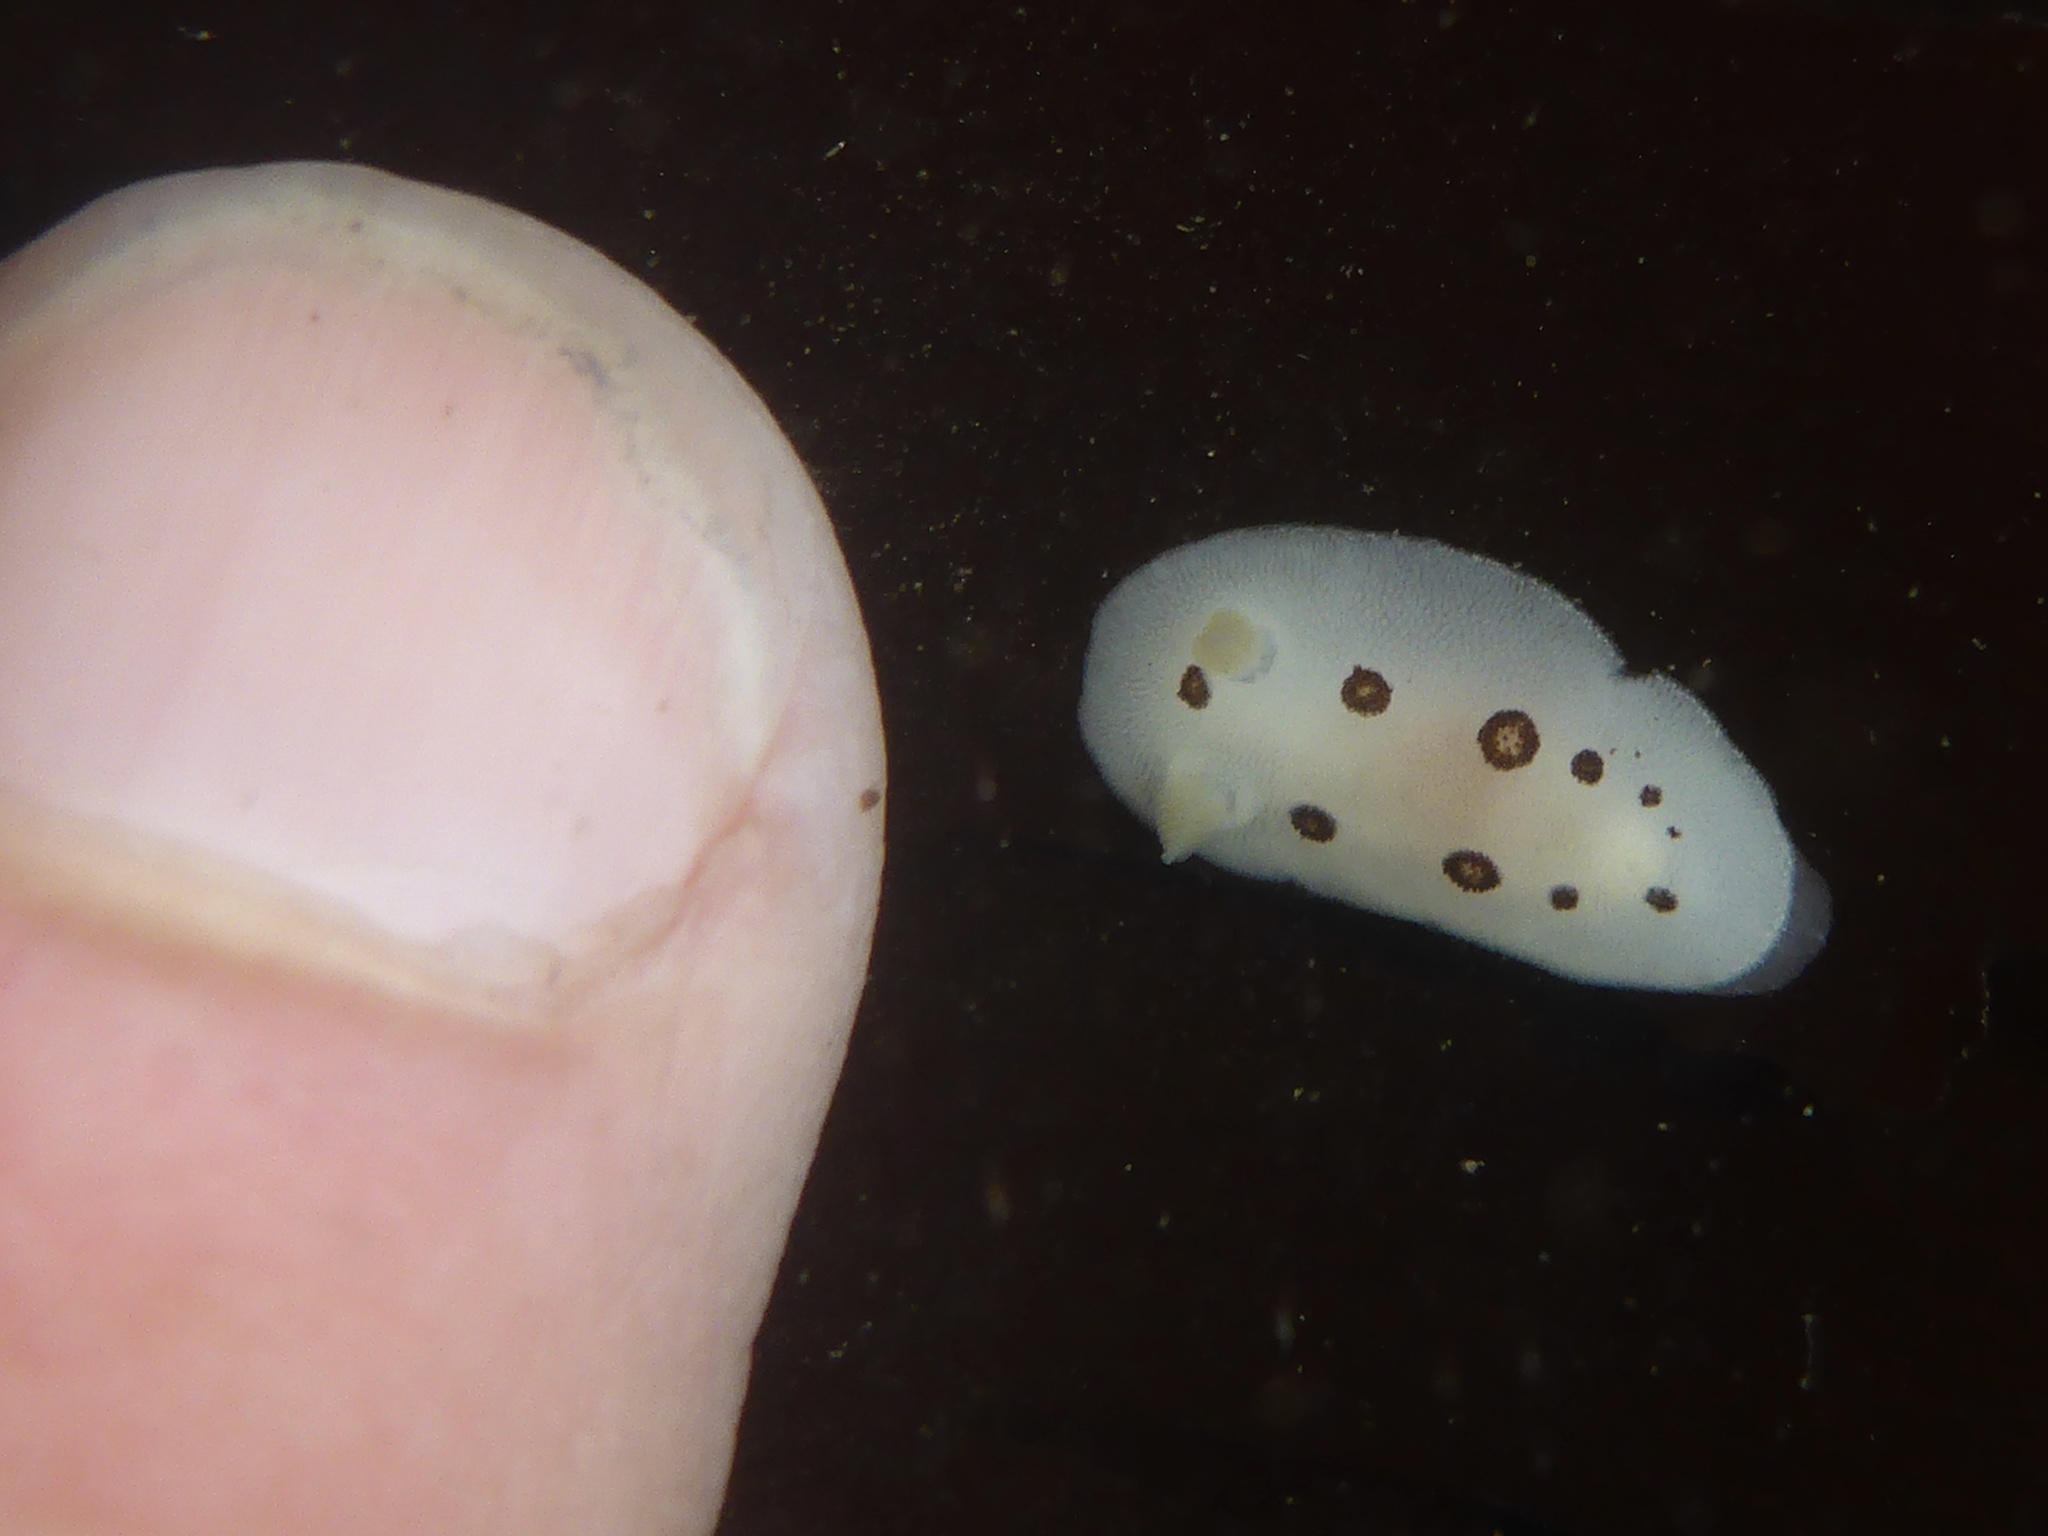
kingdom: Animalia
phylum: Mollusca
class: Gastropoda
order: Nudibranchia
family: Discodorididae
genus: Diaulula
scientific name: Diaulula sandiegensis
